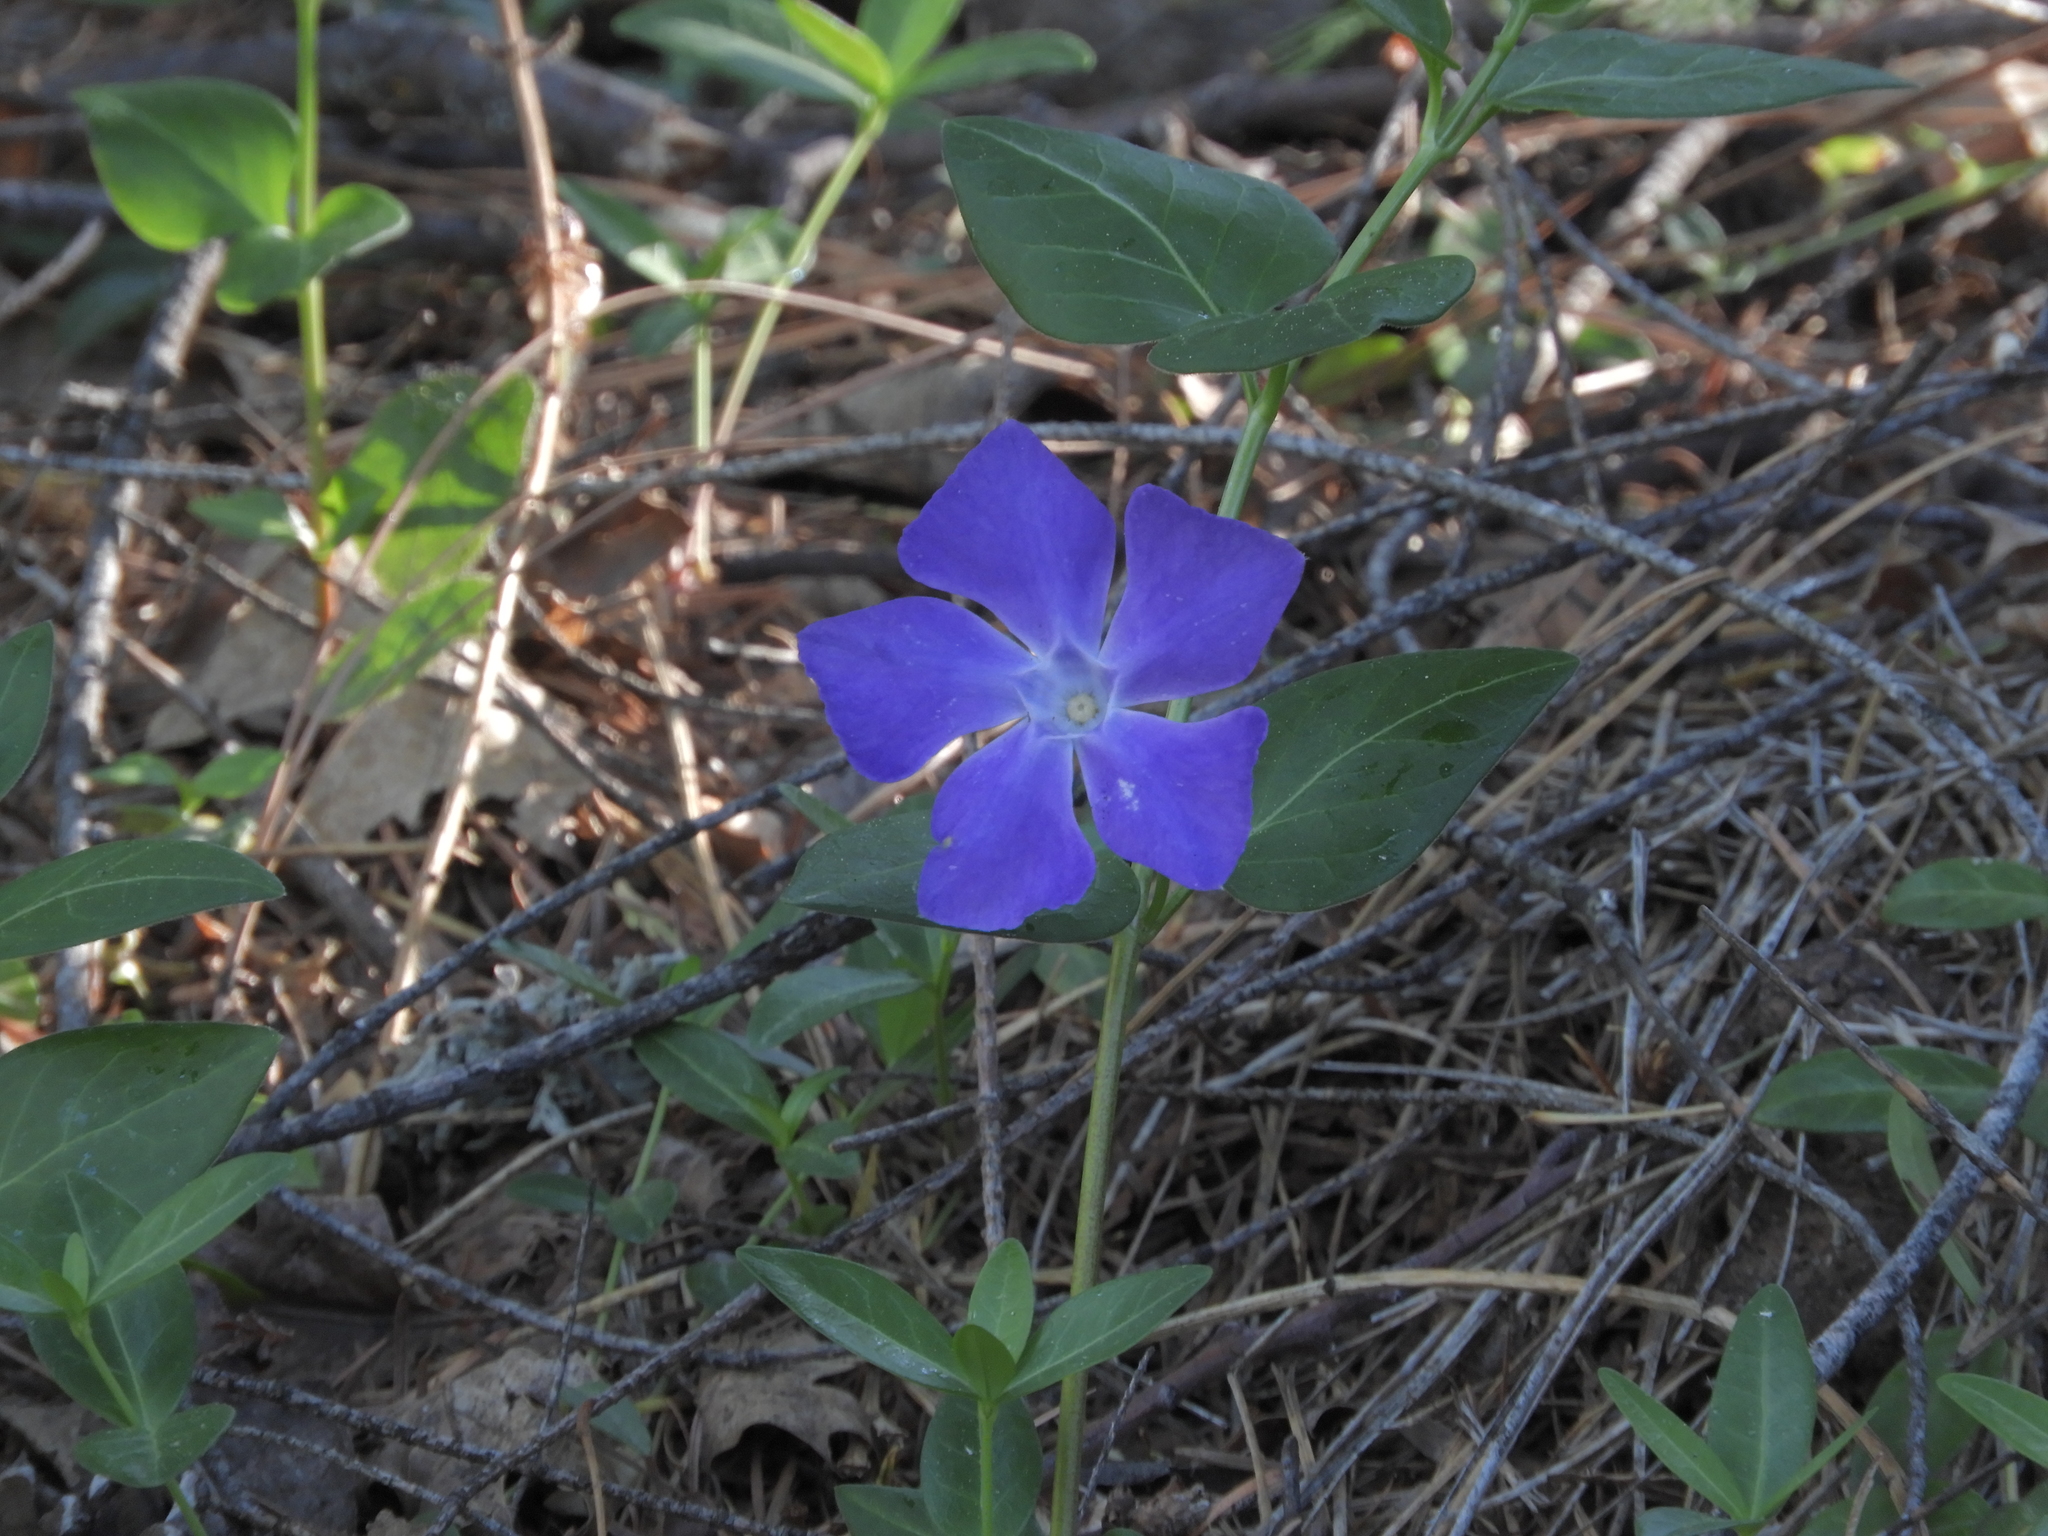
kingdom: Plantae
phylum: Tracheophyta
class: Magnoliopsida
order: Gentianales
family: Apocynaceae
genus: Vinca
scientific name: Vinca major
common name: Greater periwinkle
